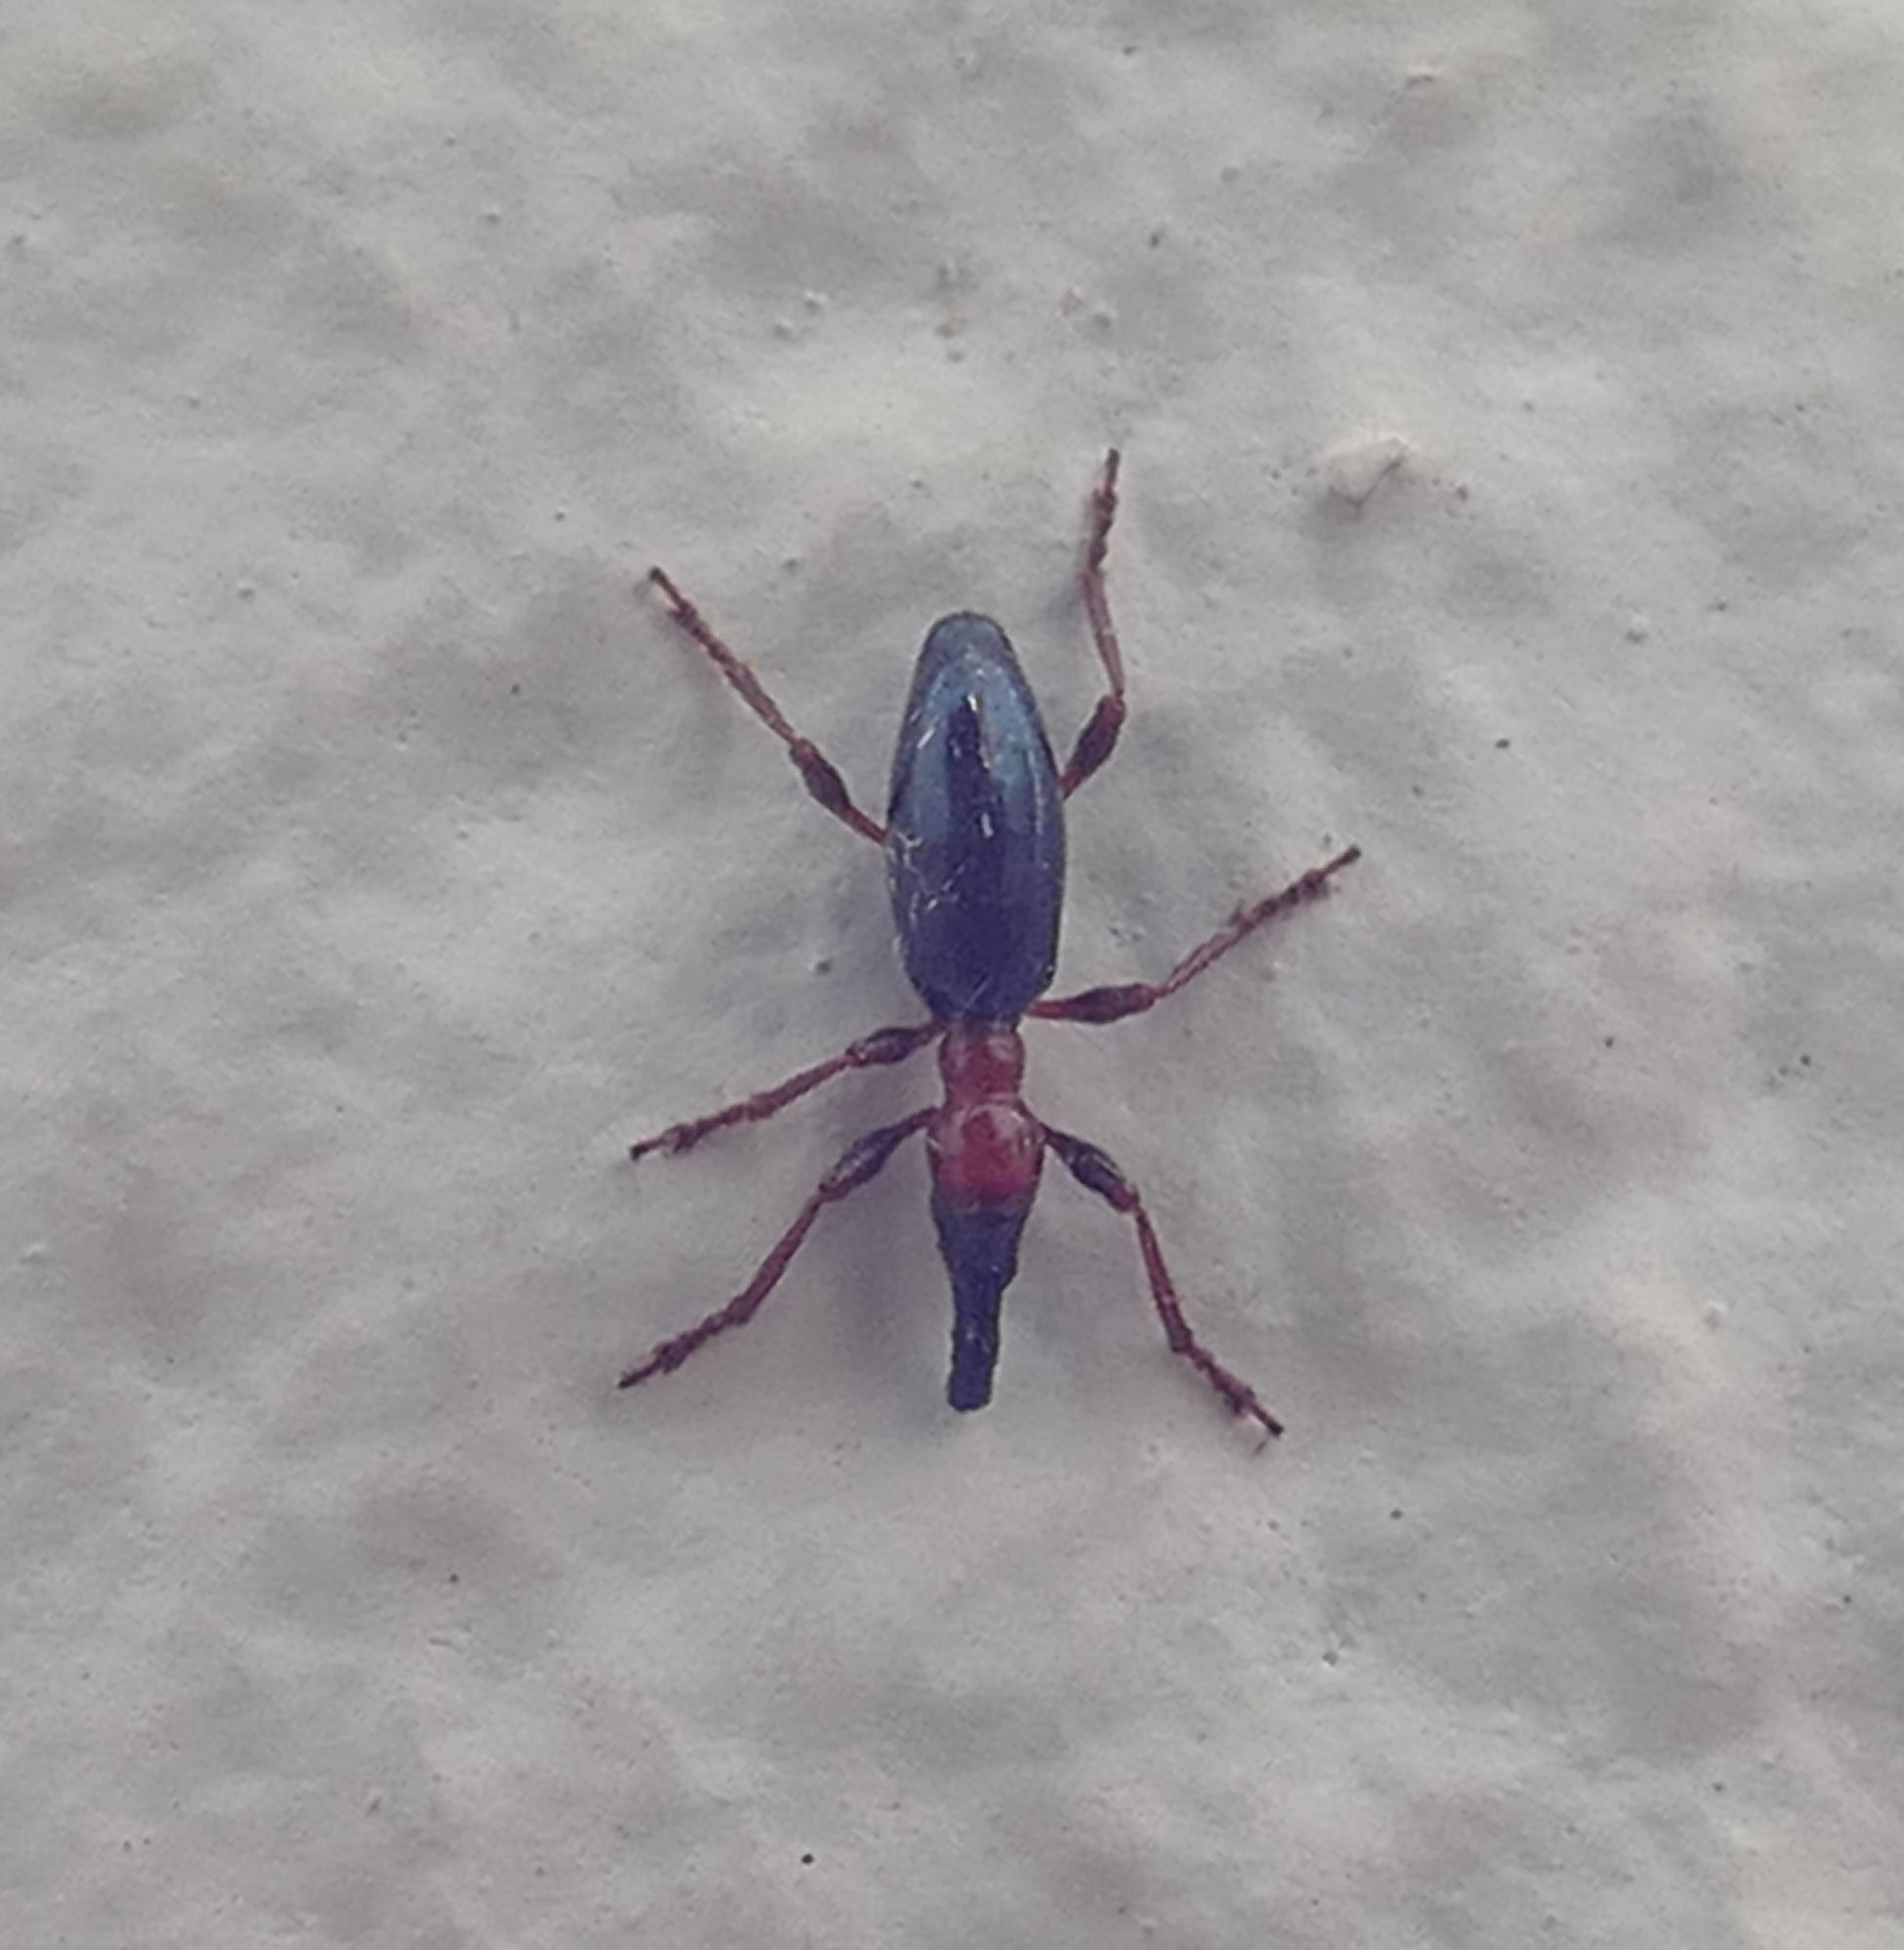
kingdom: Animalia
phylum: Arthropoda
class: Insecta
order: Coleoptera
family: Brentidae
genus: Cylas
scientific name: Cylas formicarius
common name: Sweetpotato weevil
